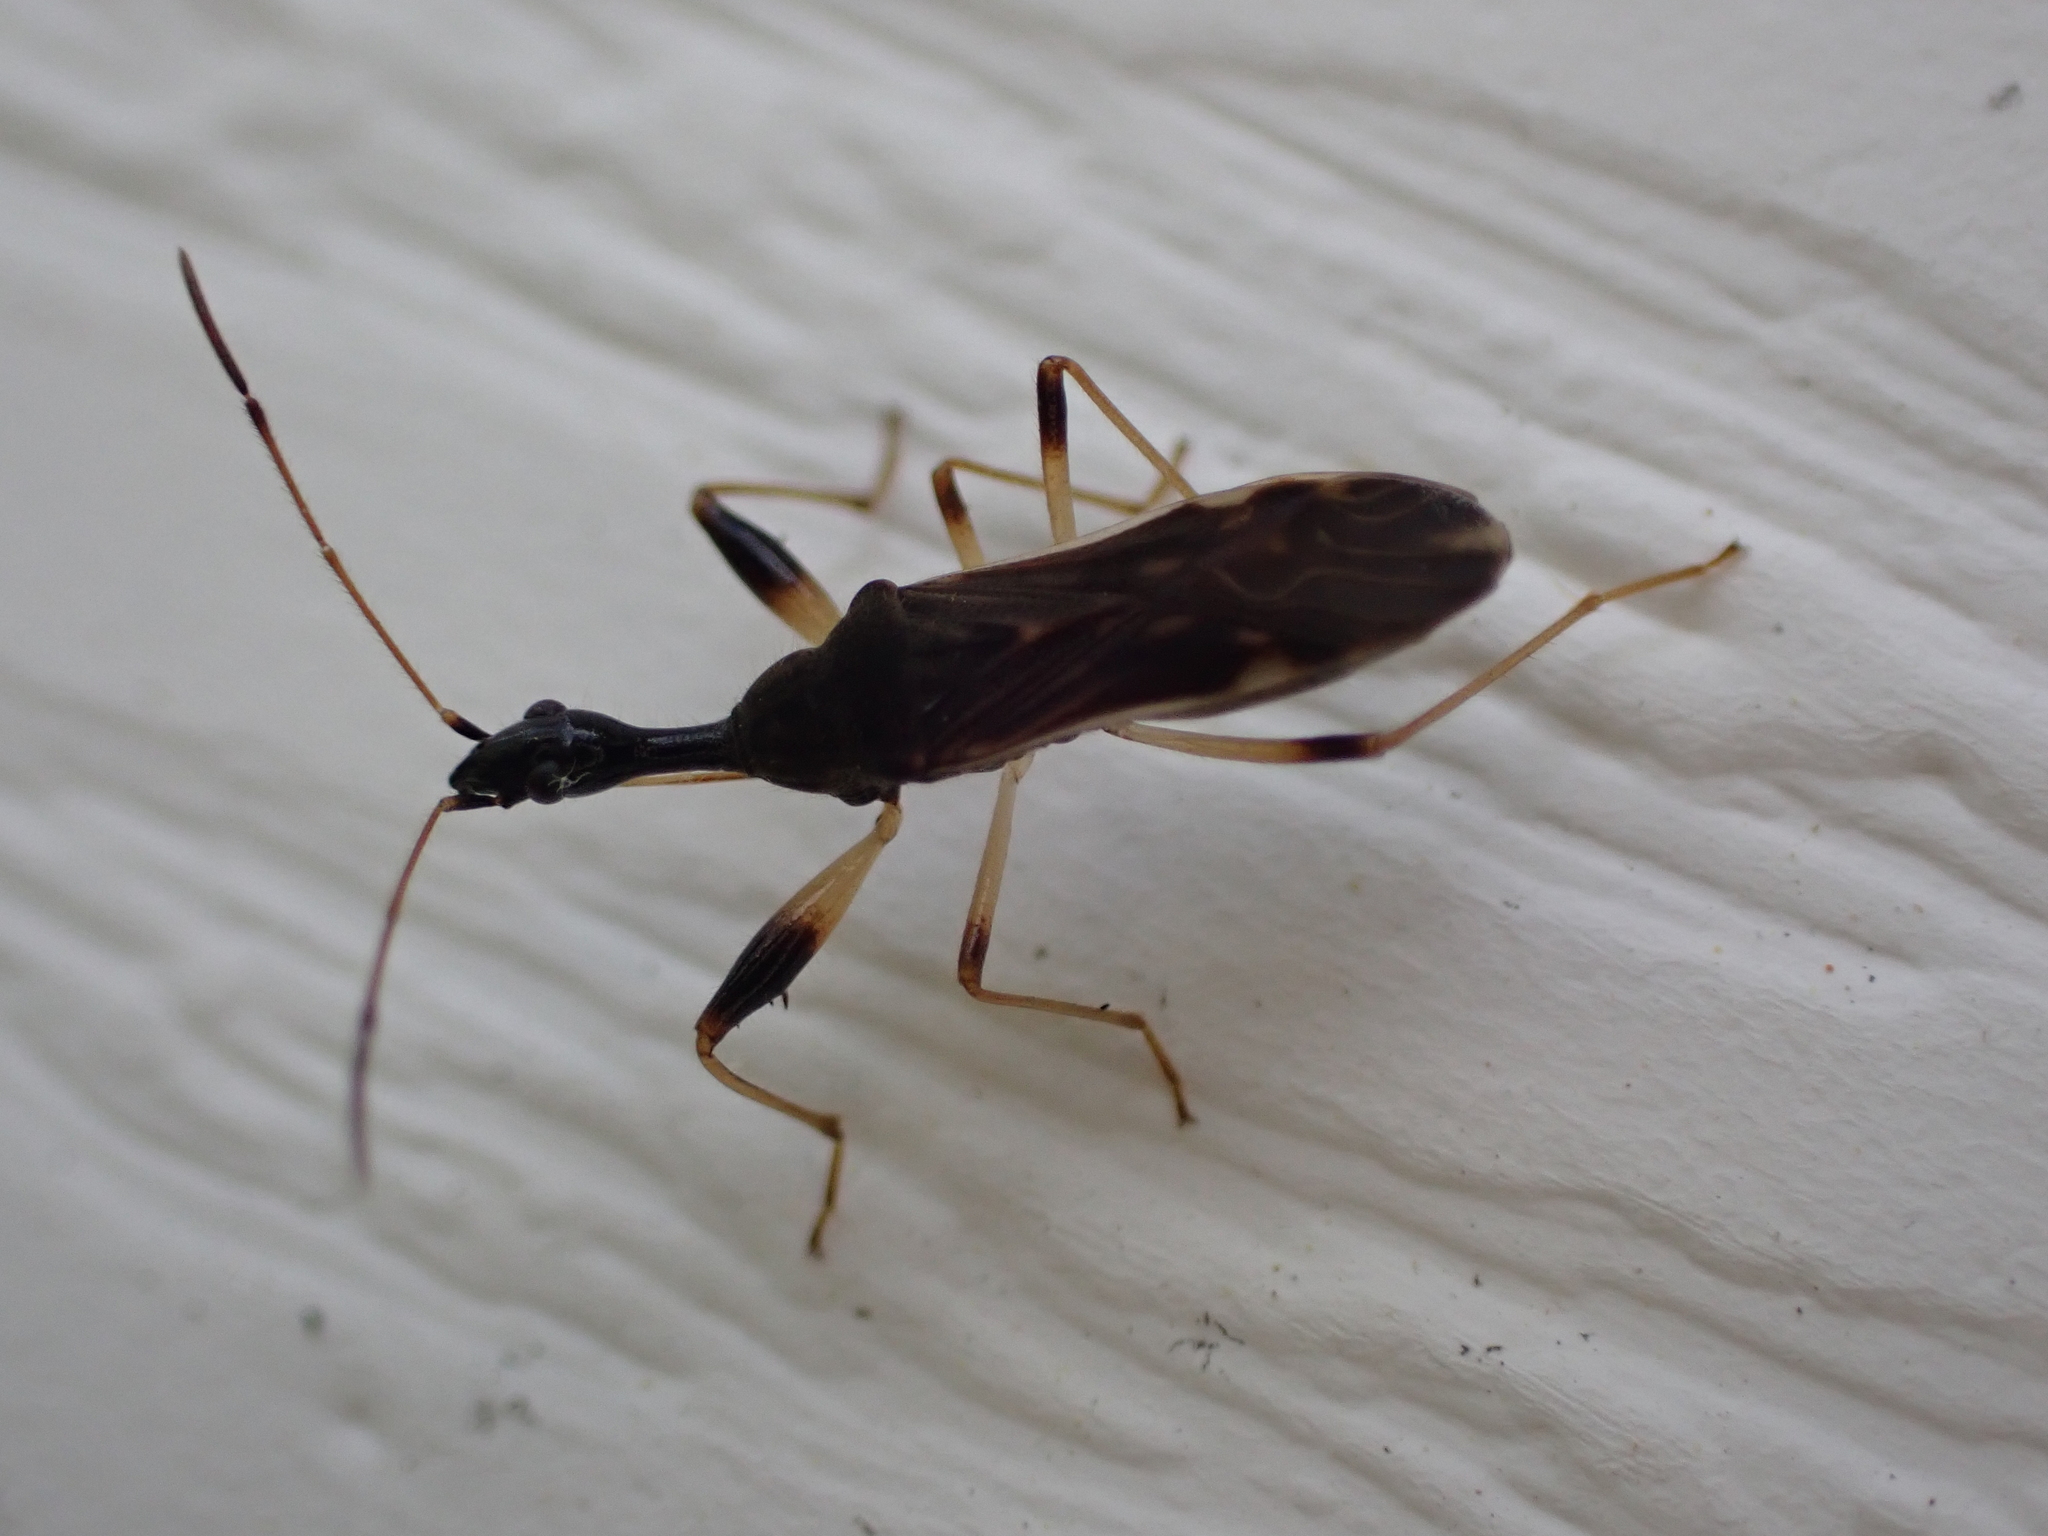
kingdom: Animalia
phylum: Arthropoda
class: Insecta
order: Hemiptera
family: Rhyparochromidae
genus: Myodocha
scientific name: Myodocha serripes
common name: Long-necked seed bug
